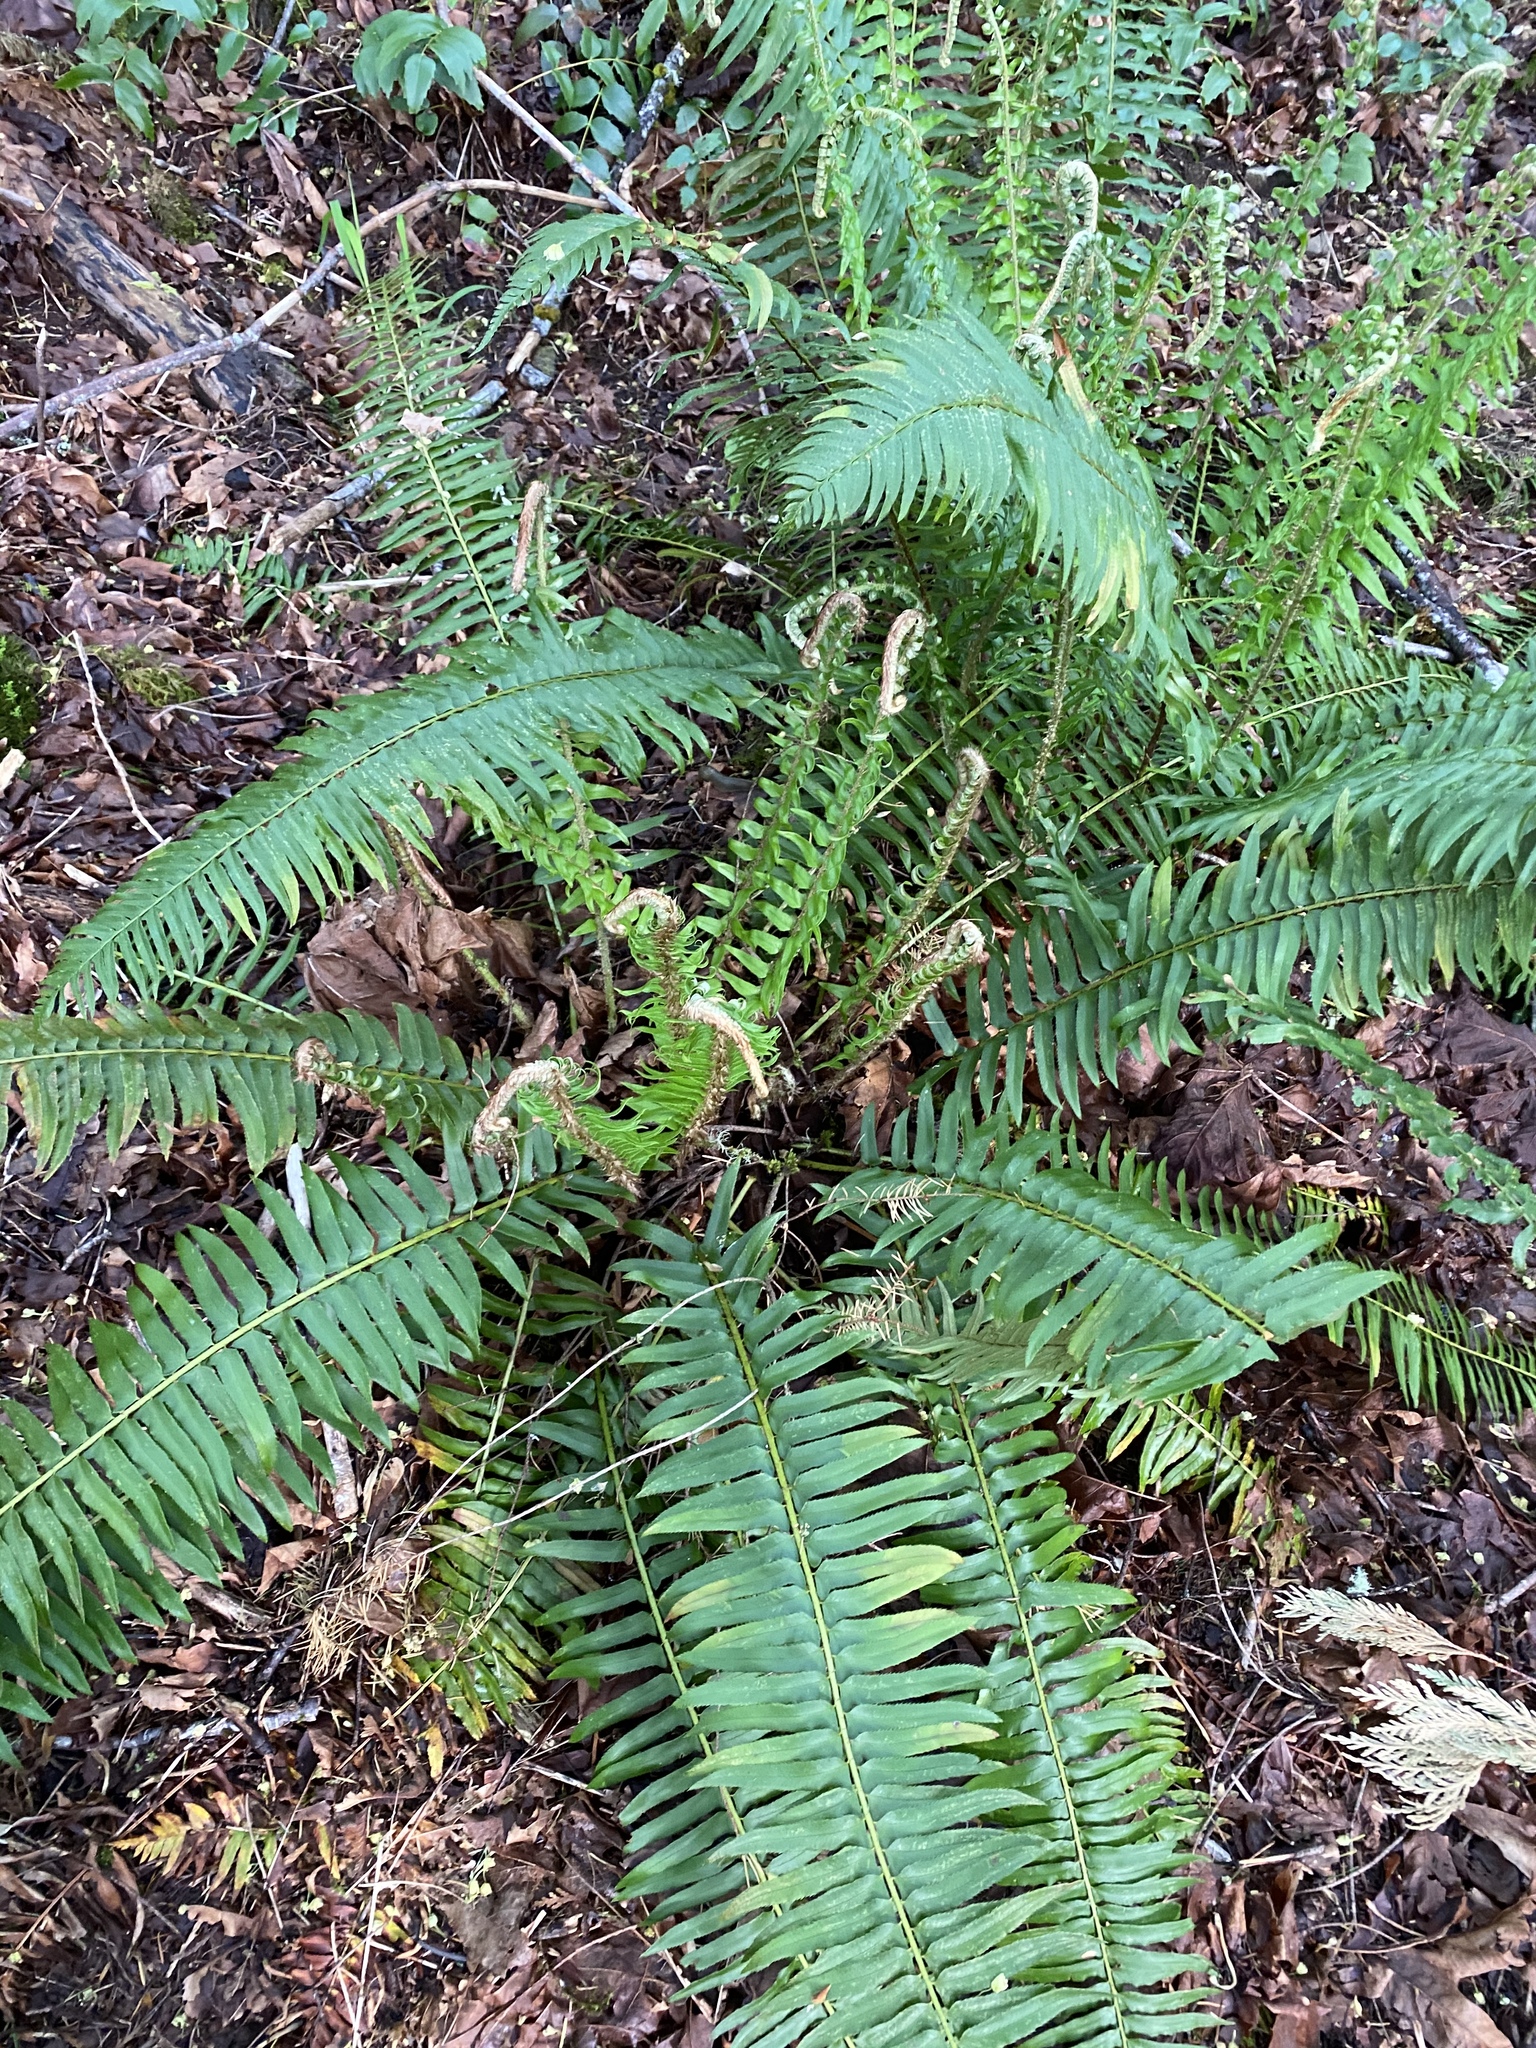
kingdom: Plantae
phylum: Tracheophyta
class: Polypodiopsida
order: Polypodiales
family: Dryopteridaceae
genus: Polystichum
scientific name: Polystichum munitum
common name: Western sword-fern
